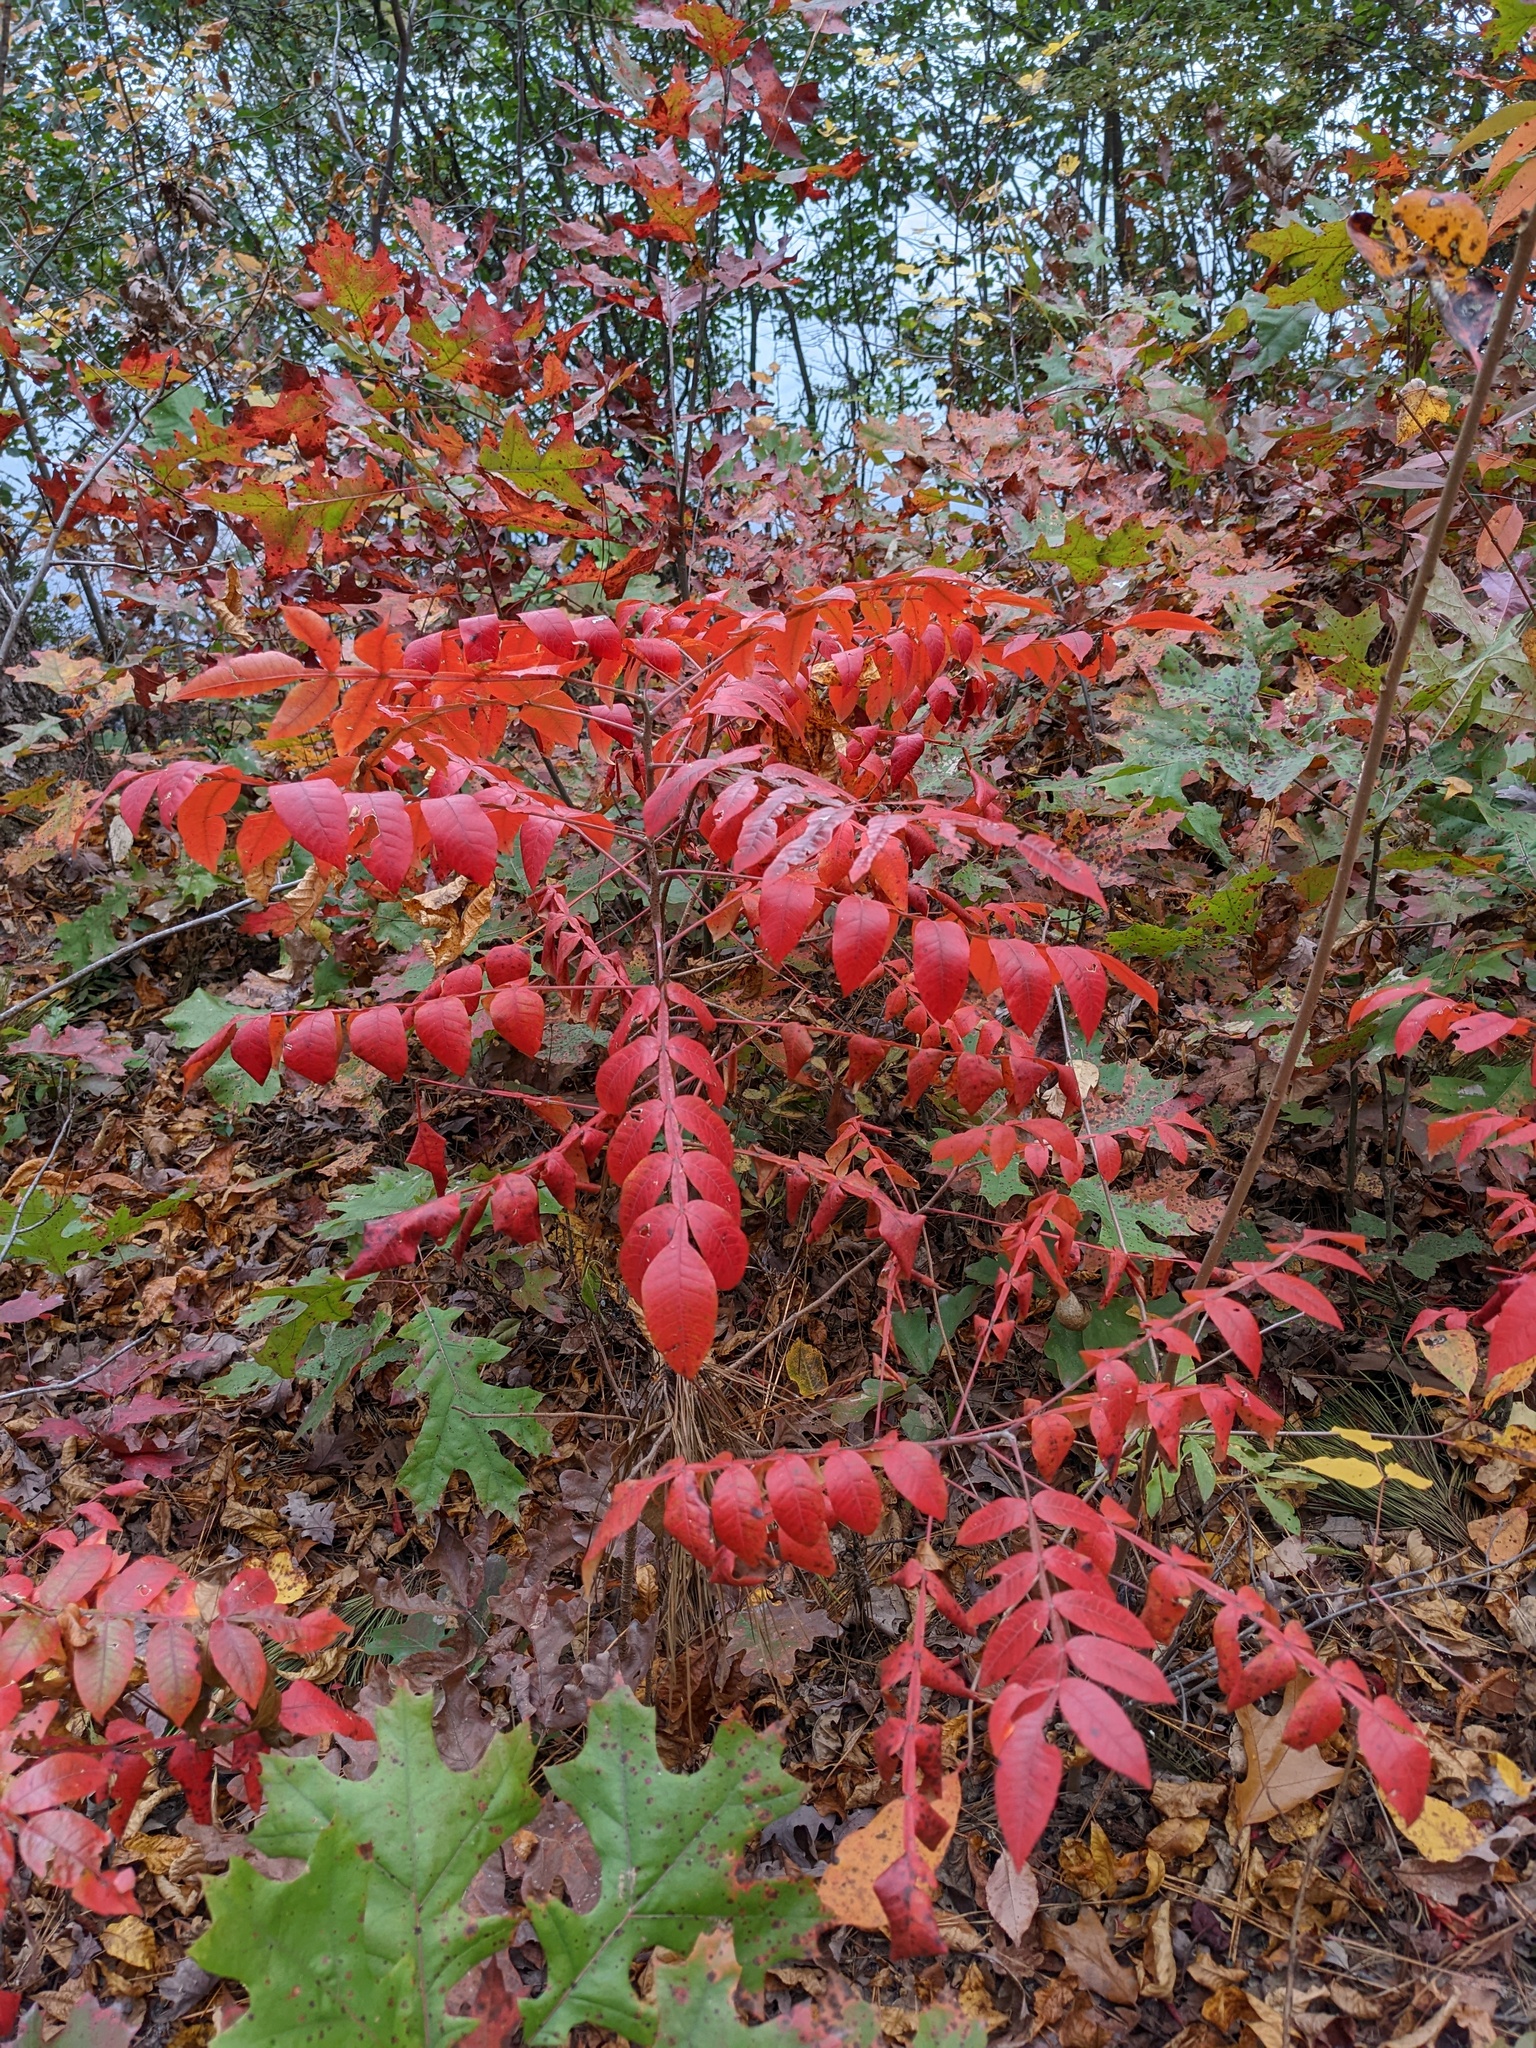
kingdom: Plantae
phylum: Tracheophyta
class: Magnoliopsida
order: Sapindales
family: Anacardiaceae
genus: Rhus
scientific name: Rhus copallina
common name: Shining sumac
